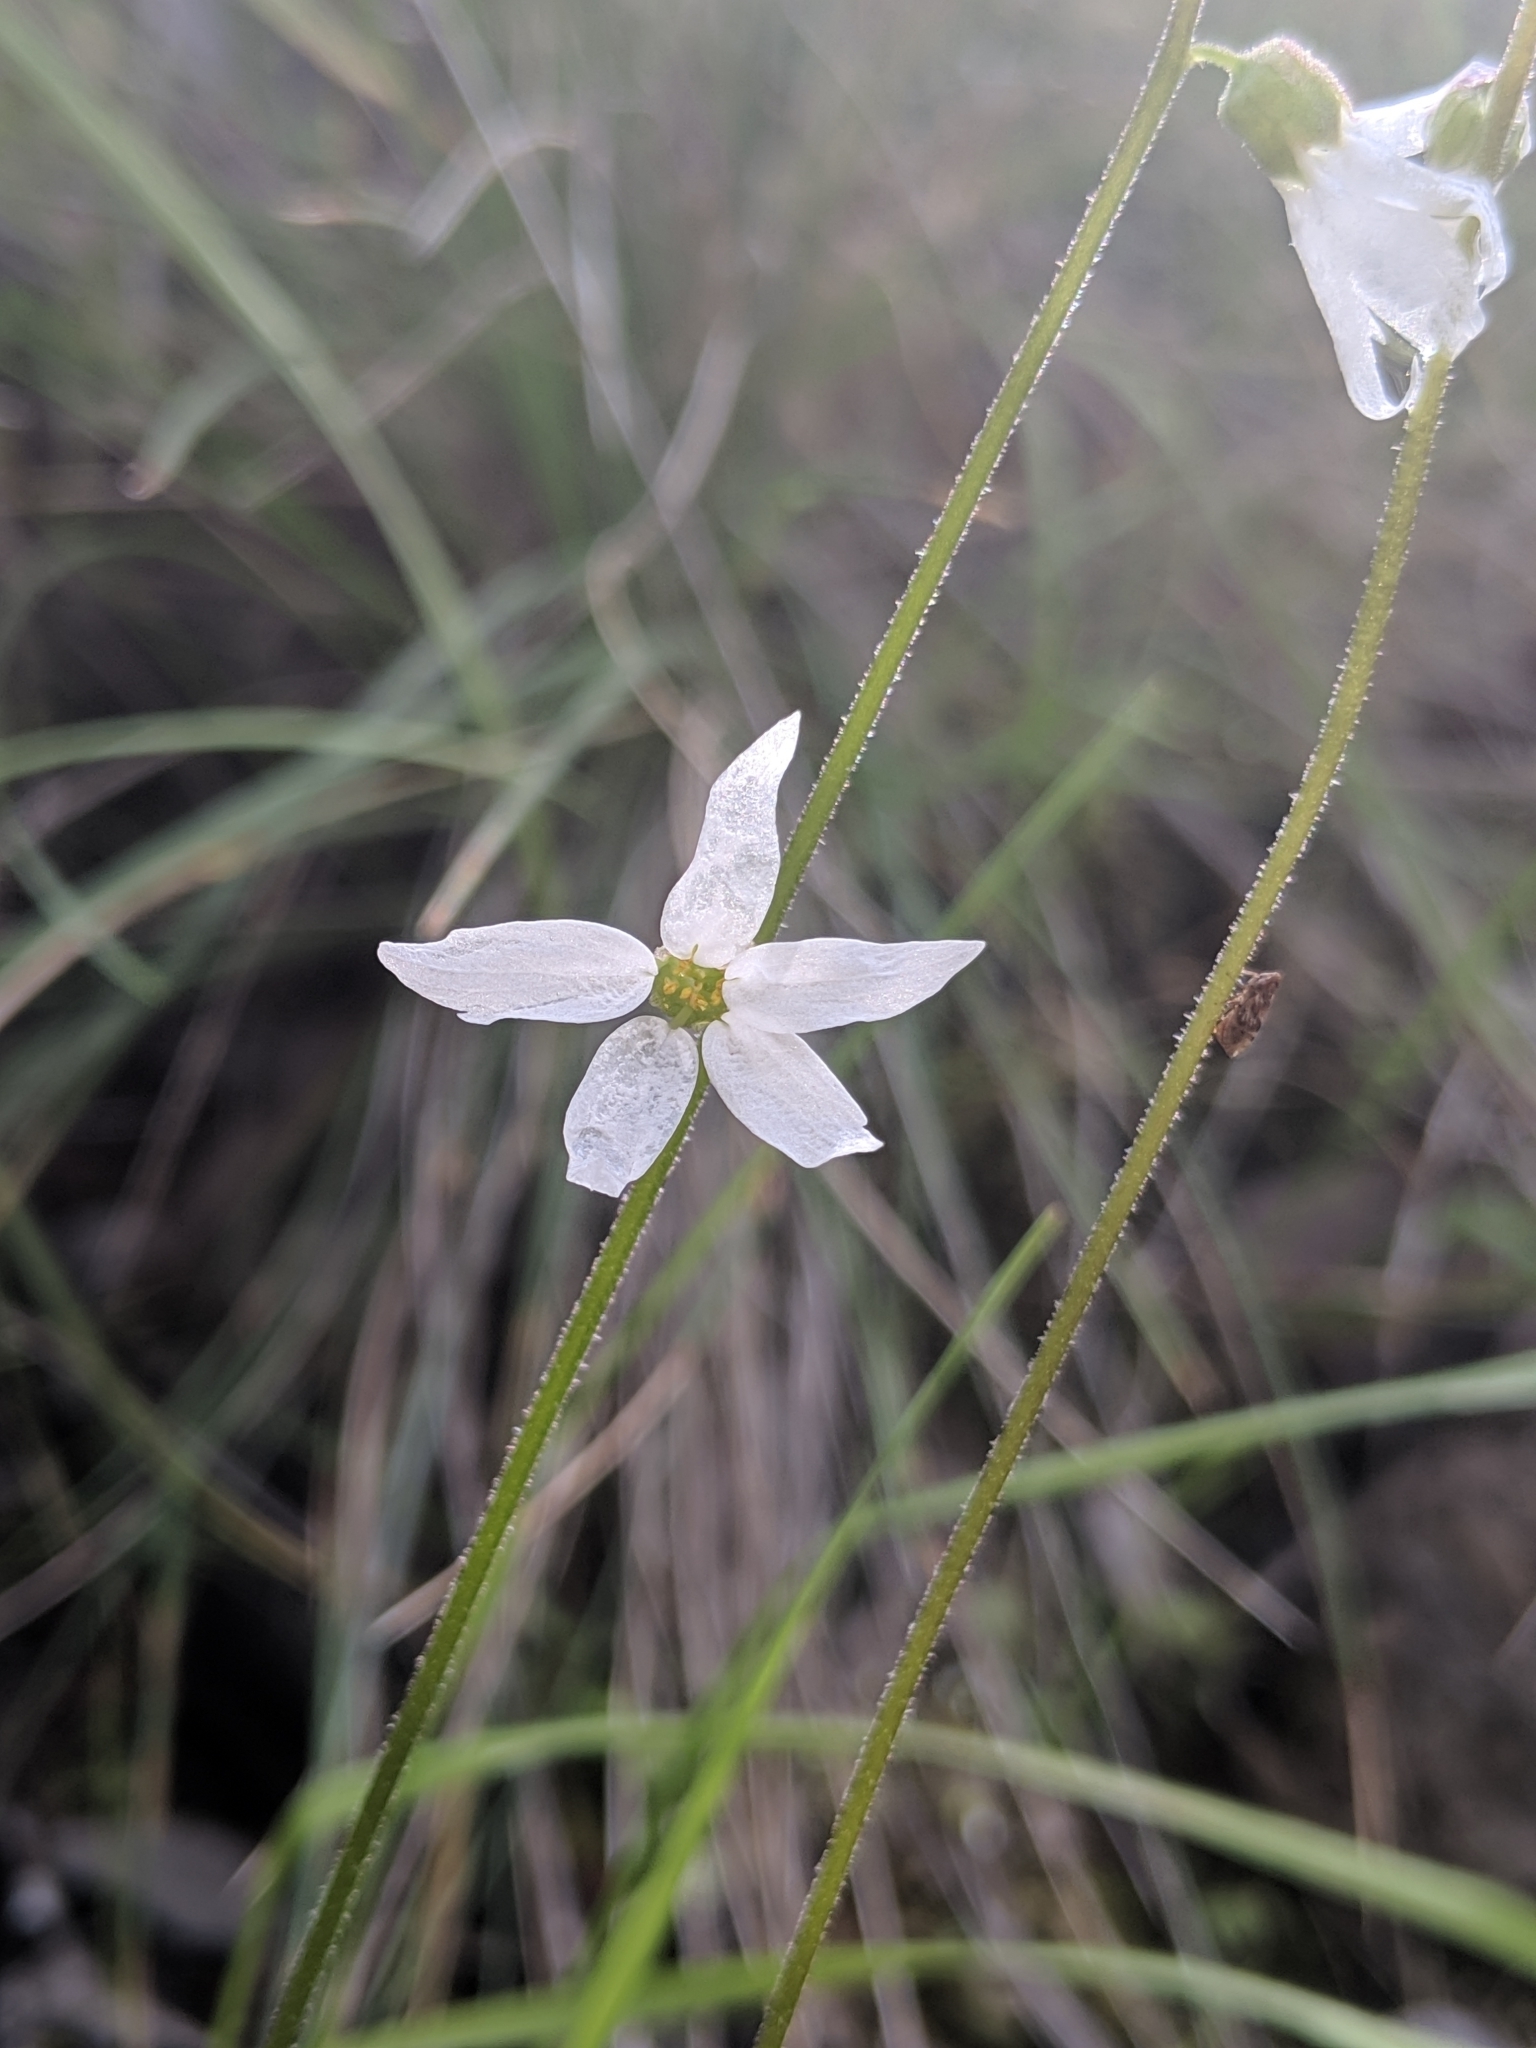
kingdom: Plantae
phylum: Tracheophyta
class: Magnoliopsida
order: Saxifragales
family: Saxifragaceae
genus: Lithophragma
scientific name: Lithophragma heterophyllum
